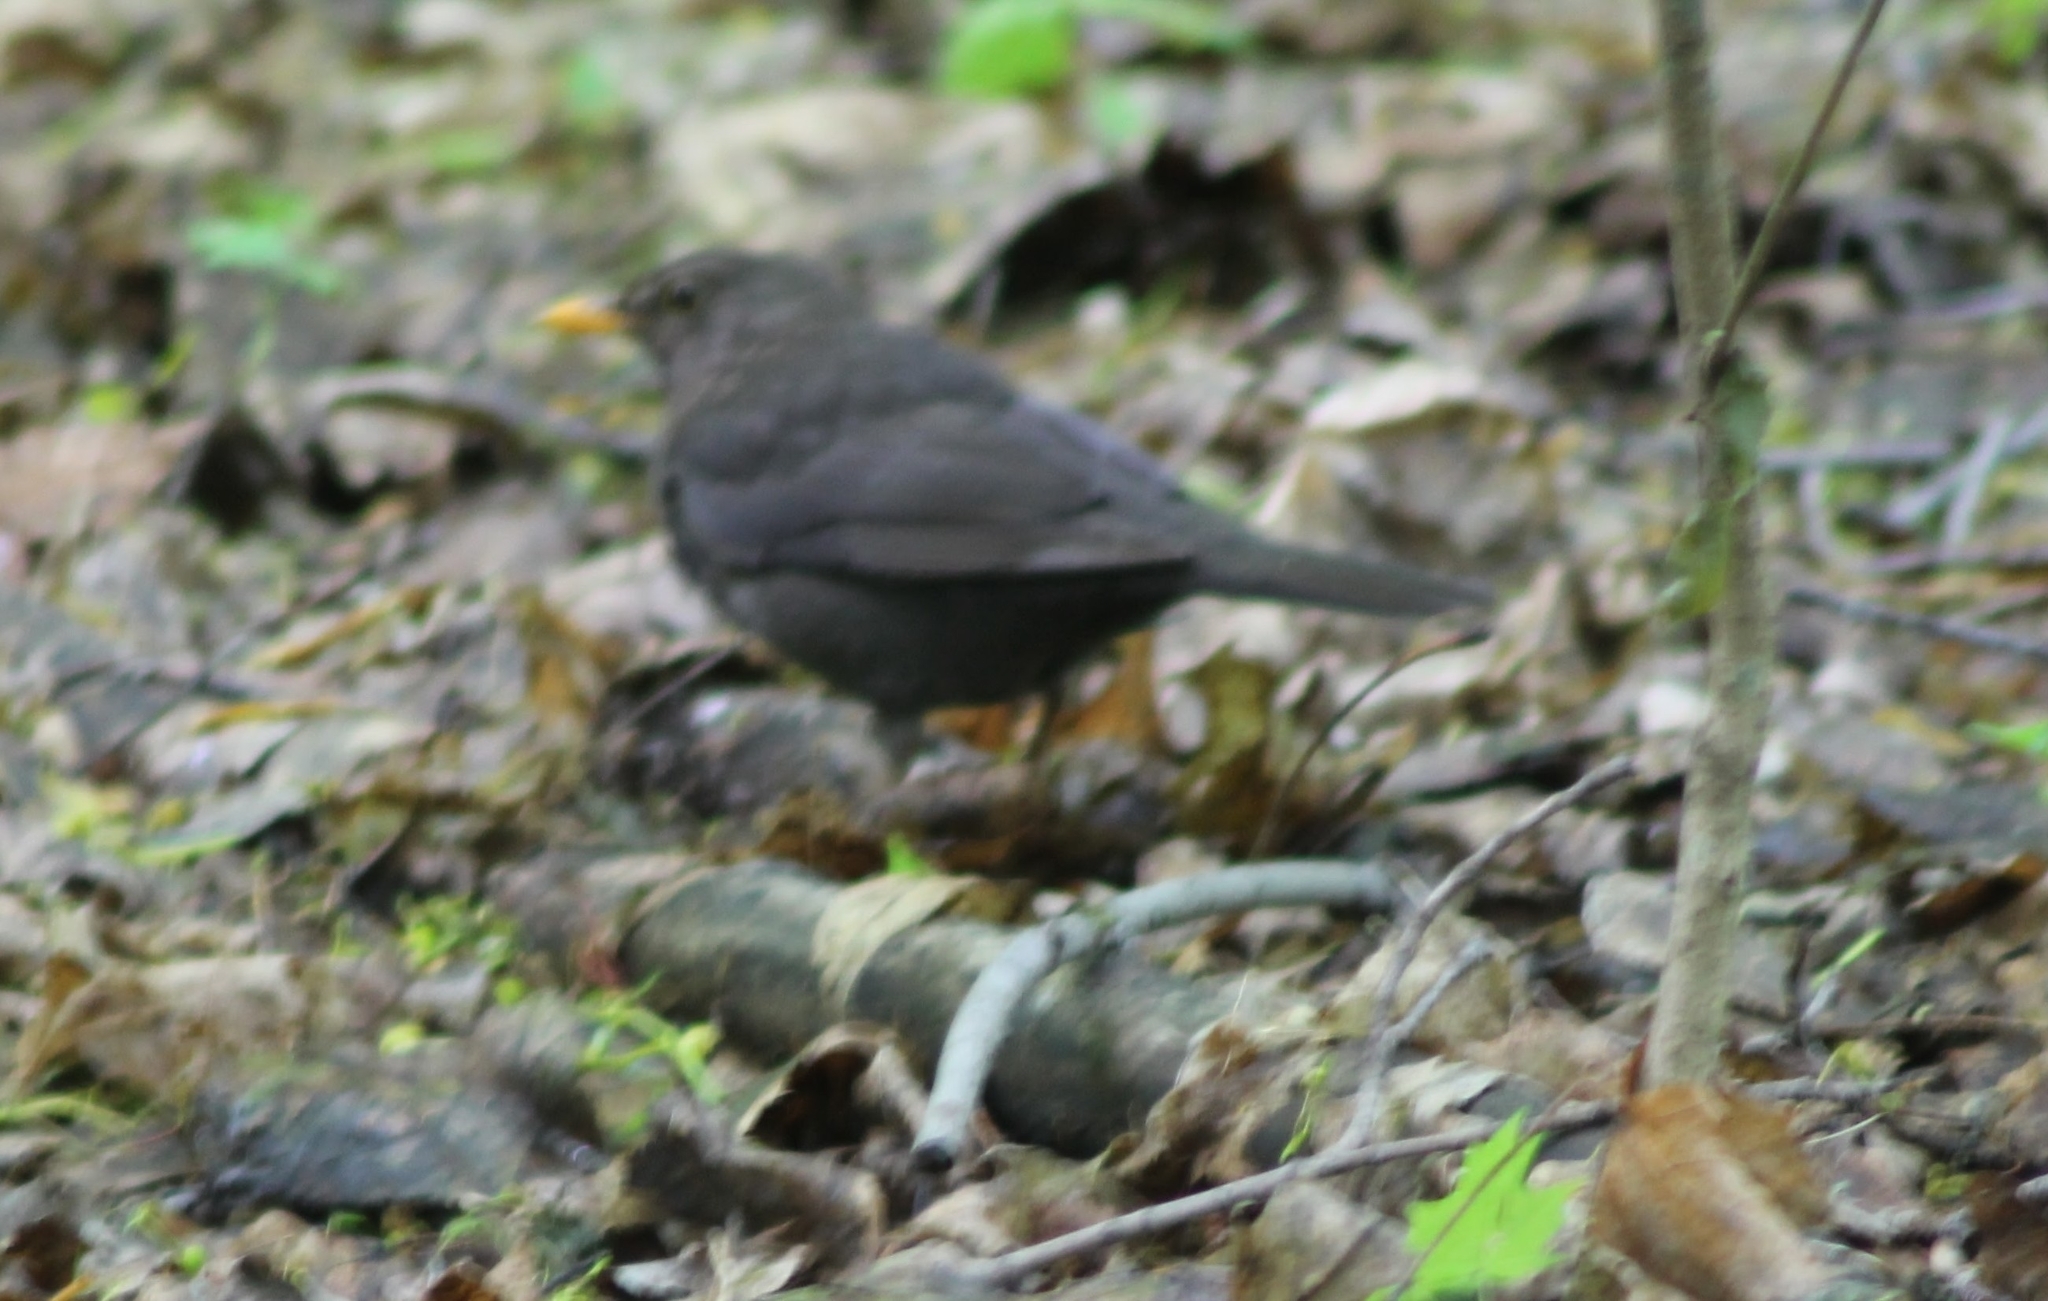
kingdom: Animalia
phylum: Chordata
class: Aves
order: Passeriformes
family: Turdidae
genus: Turdus
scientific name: Turdus merula
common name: Common blackbird
